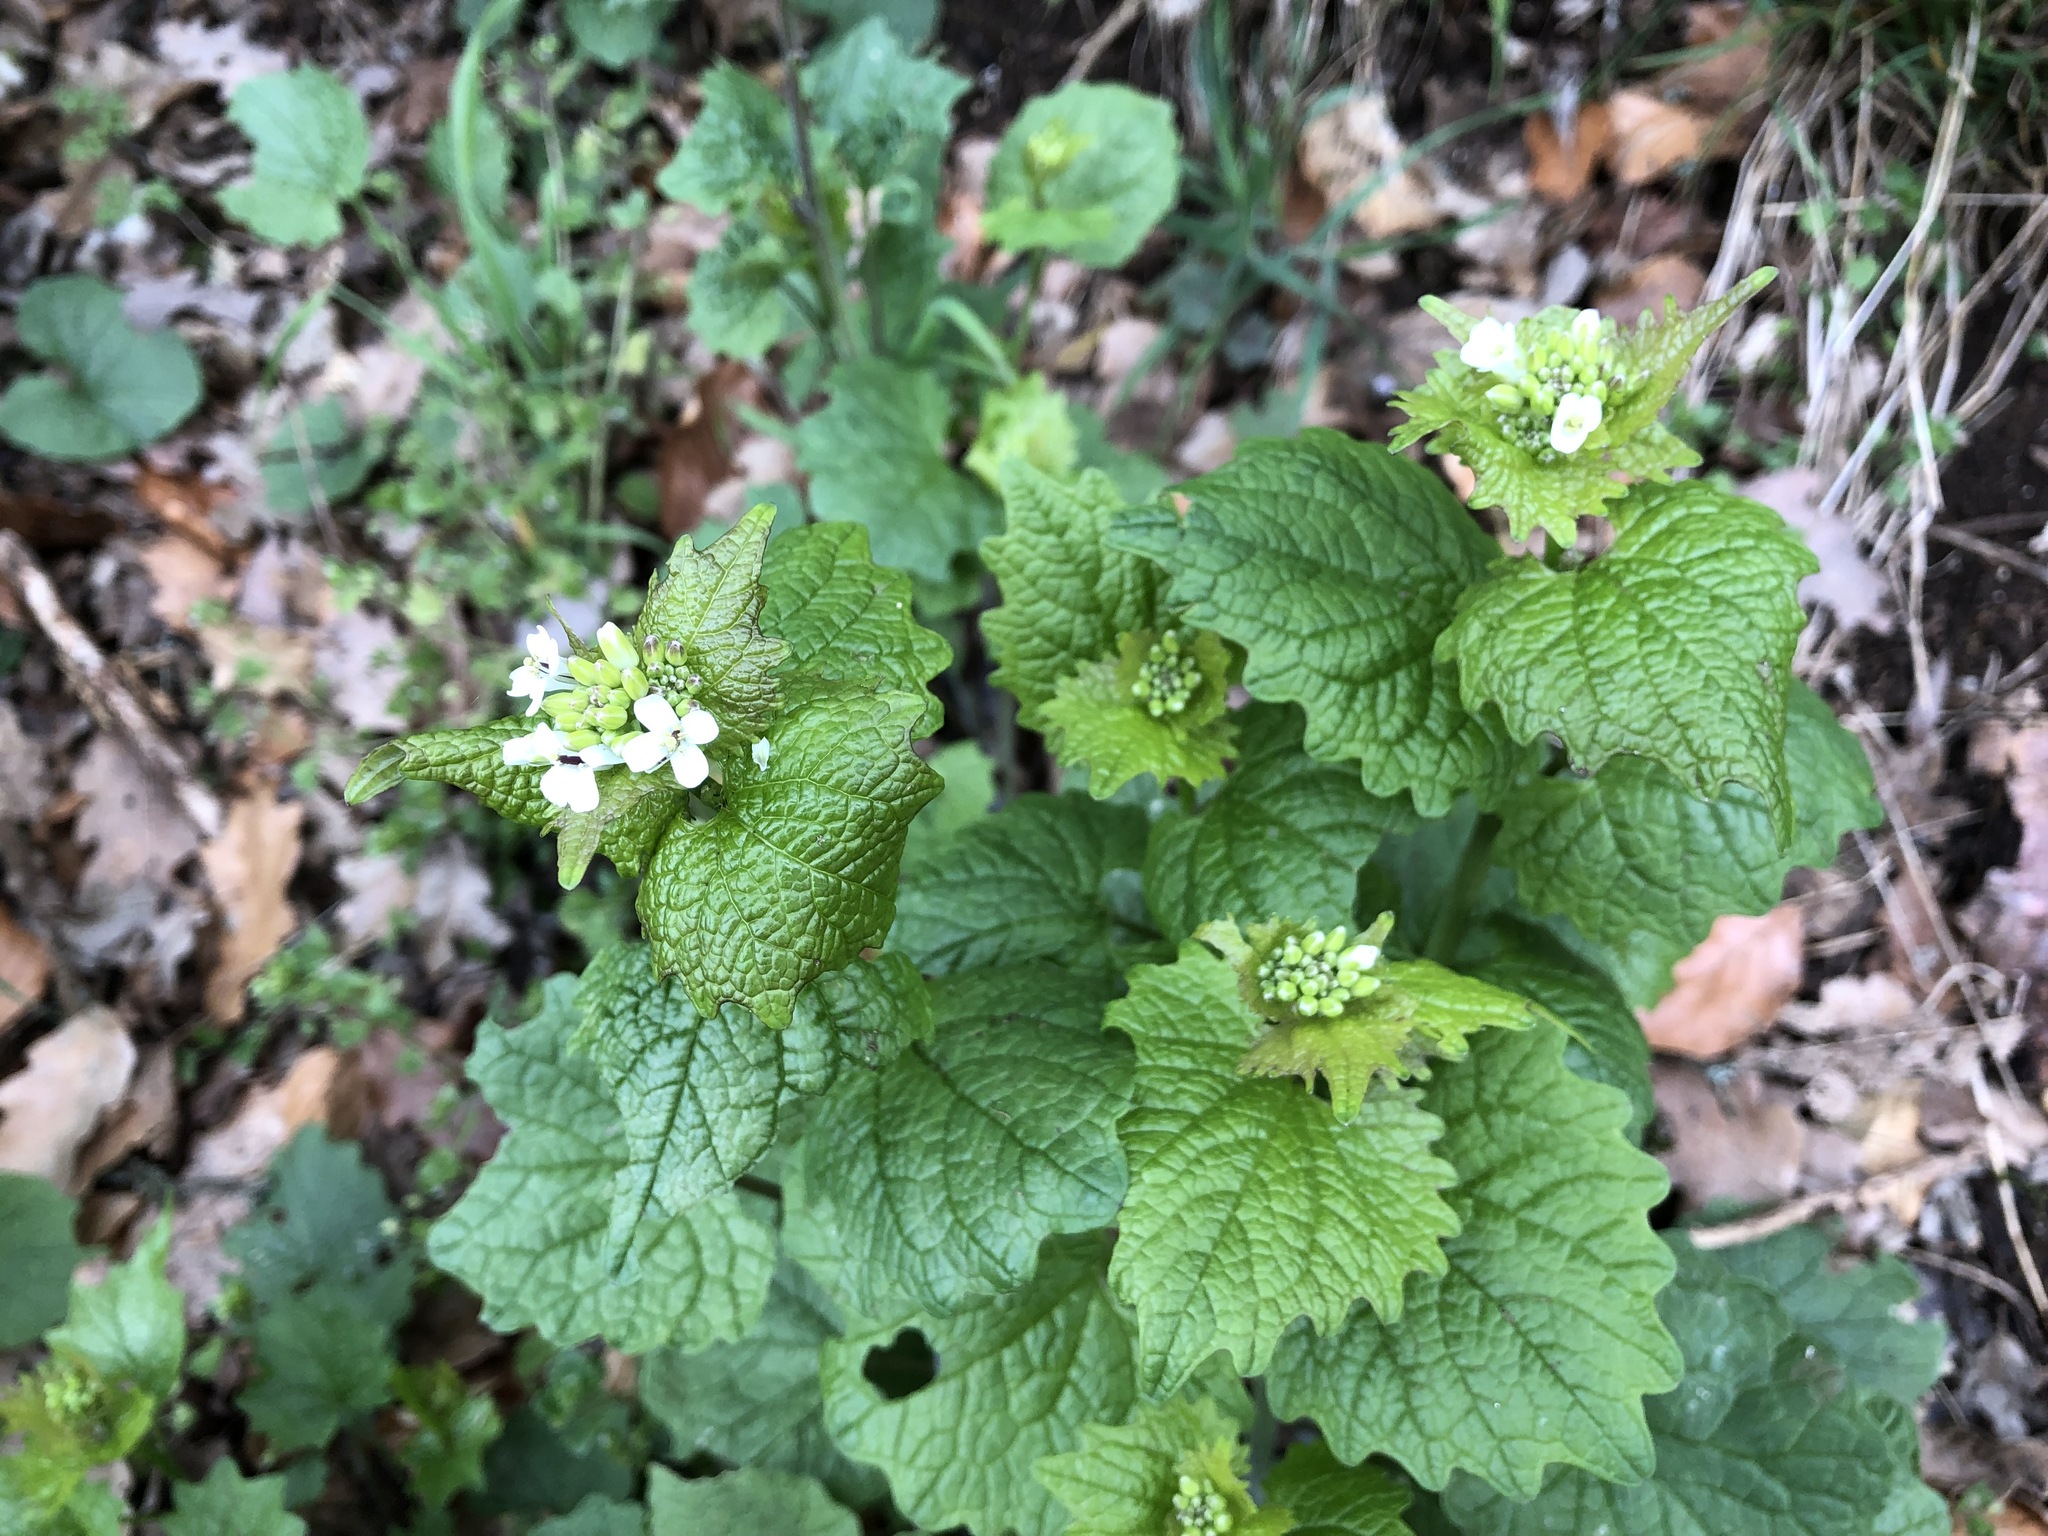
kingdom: Plantae
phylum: Tracheophyta
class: Magnoliopsida
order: Brassicales
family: Brassicaceae
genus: Alliaria
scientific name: Alliaria petiolata
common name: Garlic mustard
